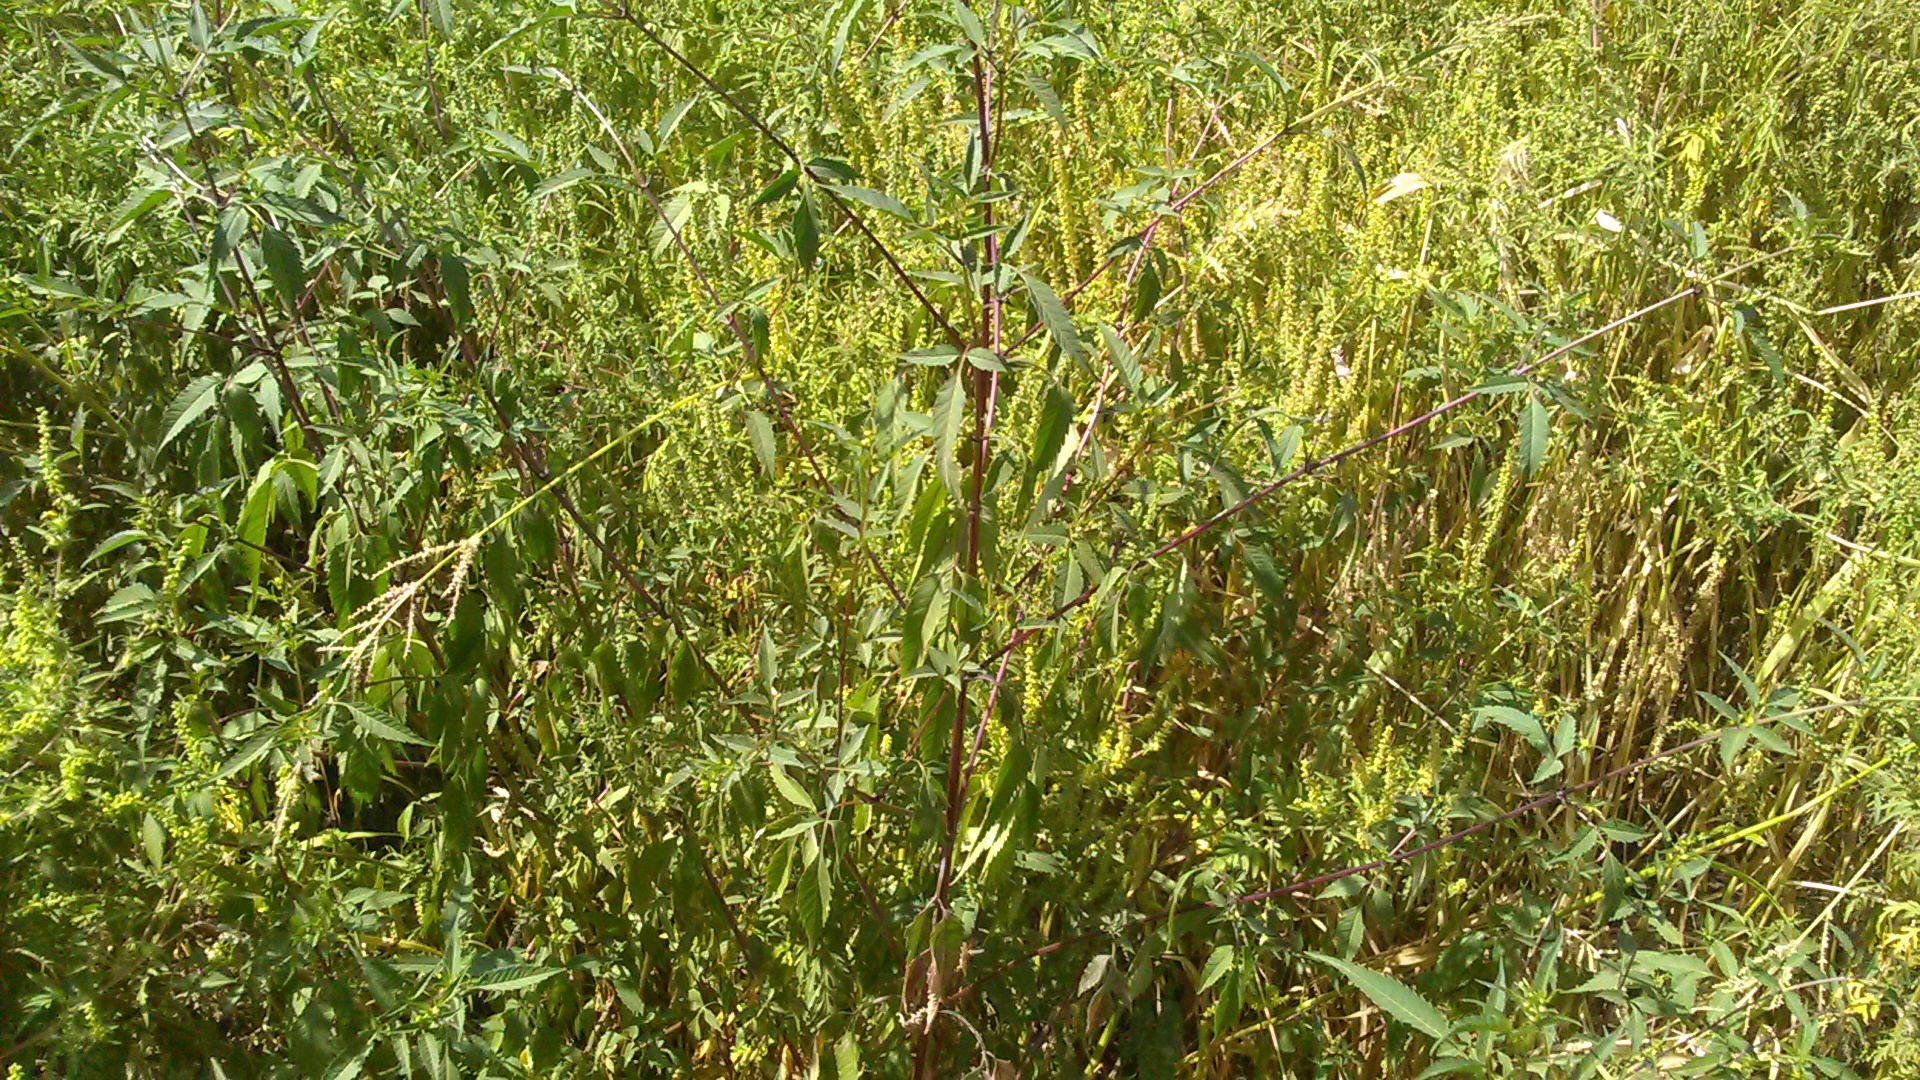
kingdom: Plantae
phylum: Tracheophyta
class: Magnoliopsida
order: Asterales
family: Asteraceae
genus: Bidens
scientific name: Bidens frondosa
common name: Beggarticks
